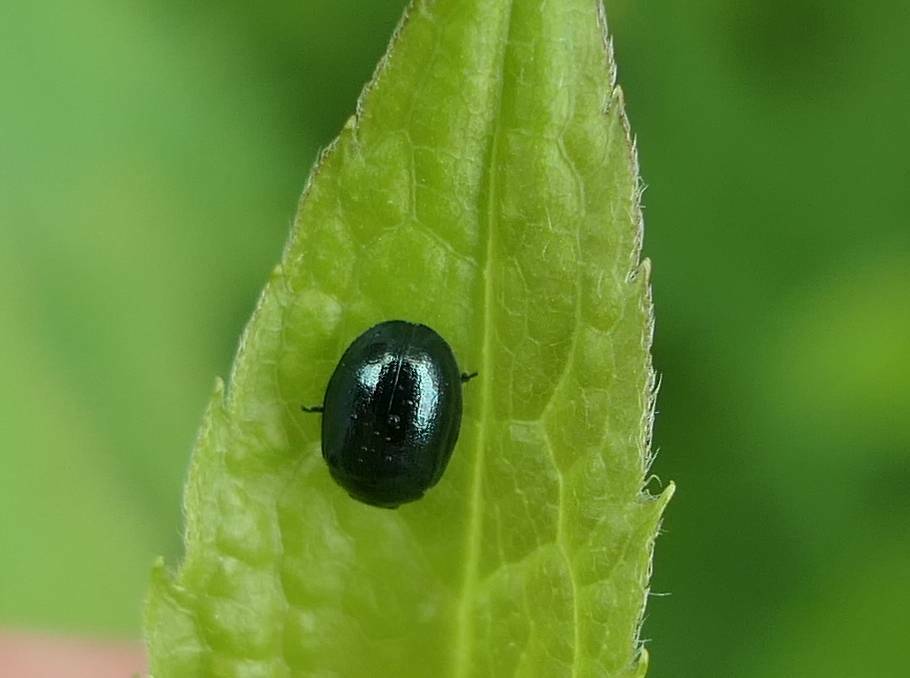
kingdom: Animalia
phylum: Arthropoda
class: Insecta
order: Coleoptera
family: Chrysomelidae
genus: Plagiodera
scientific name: Plagiodera versicolora
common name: Imported willow leaf beetle
